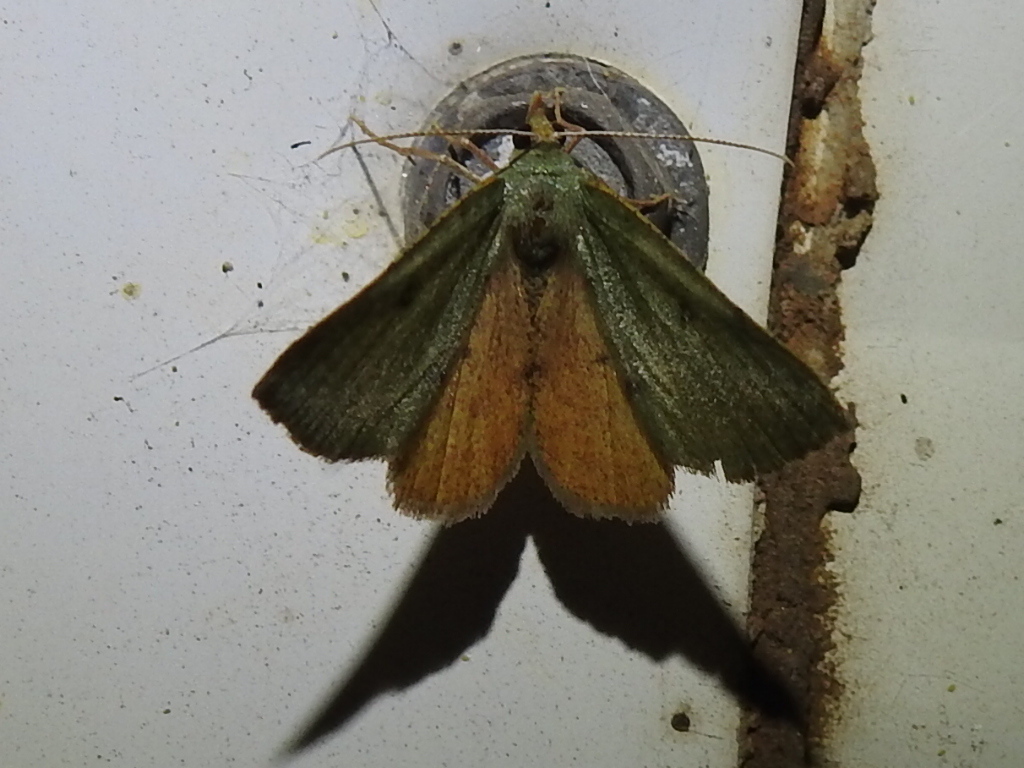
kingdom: Animalia
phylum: Arthropoda
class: Insecta
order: Lepidoptera
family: Geometridae
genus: Chloraspilates
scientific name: Chloraspilates bicoloraria
